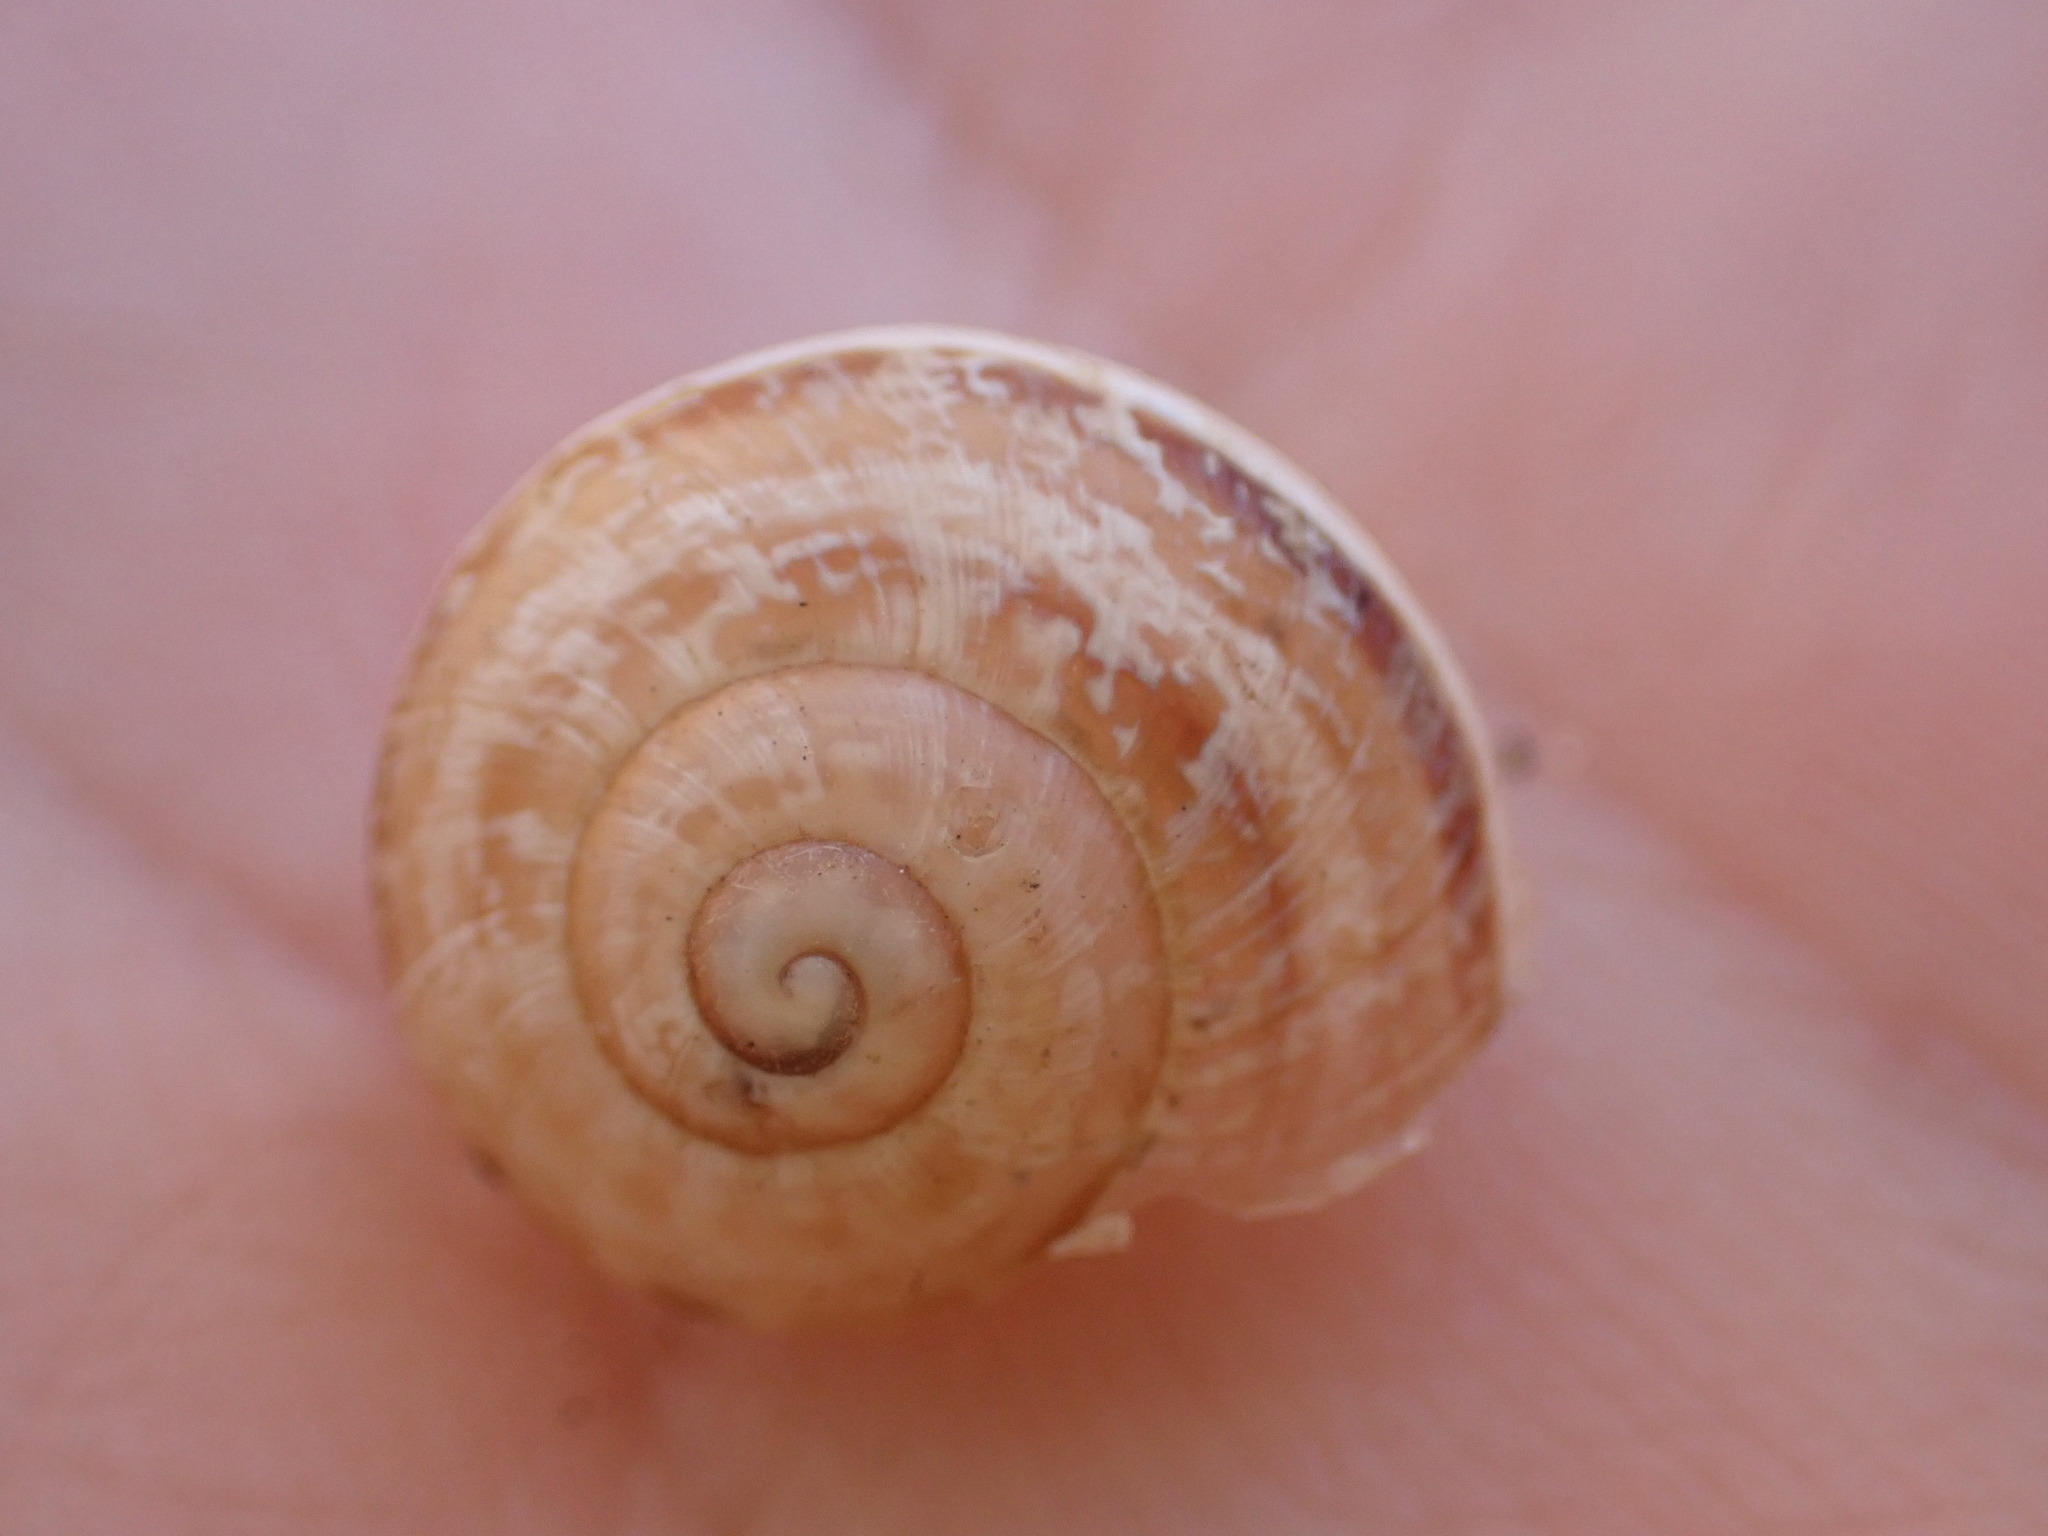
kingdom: Animalia
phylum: Mollusca
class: Gastropoda
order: Stylommatophora
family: Helicidae
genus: Eobania
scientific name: Eobania vermiculata
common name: Chocolateband snail
